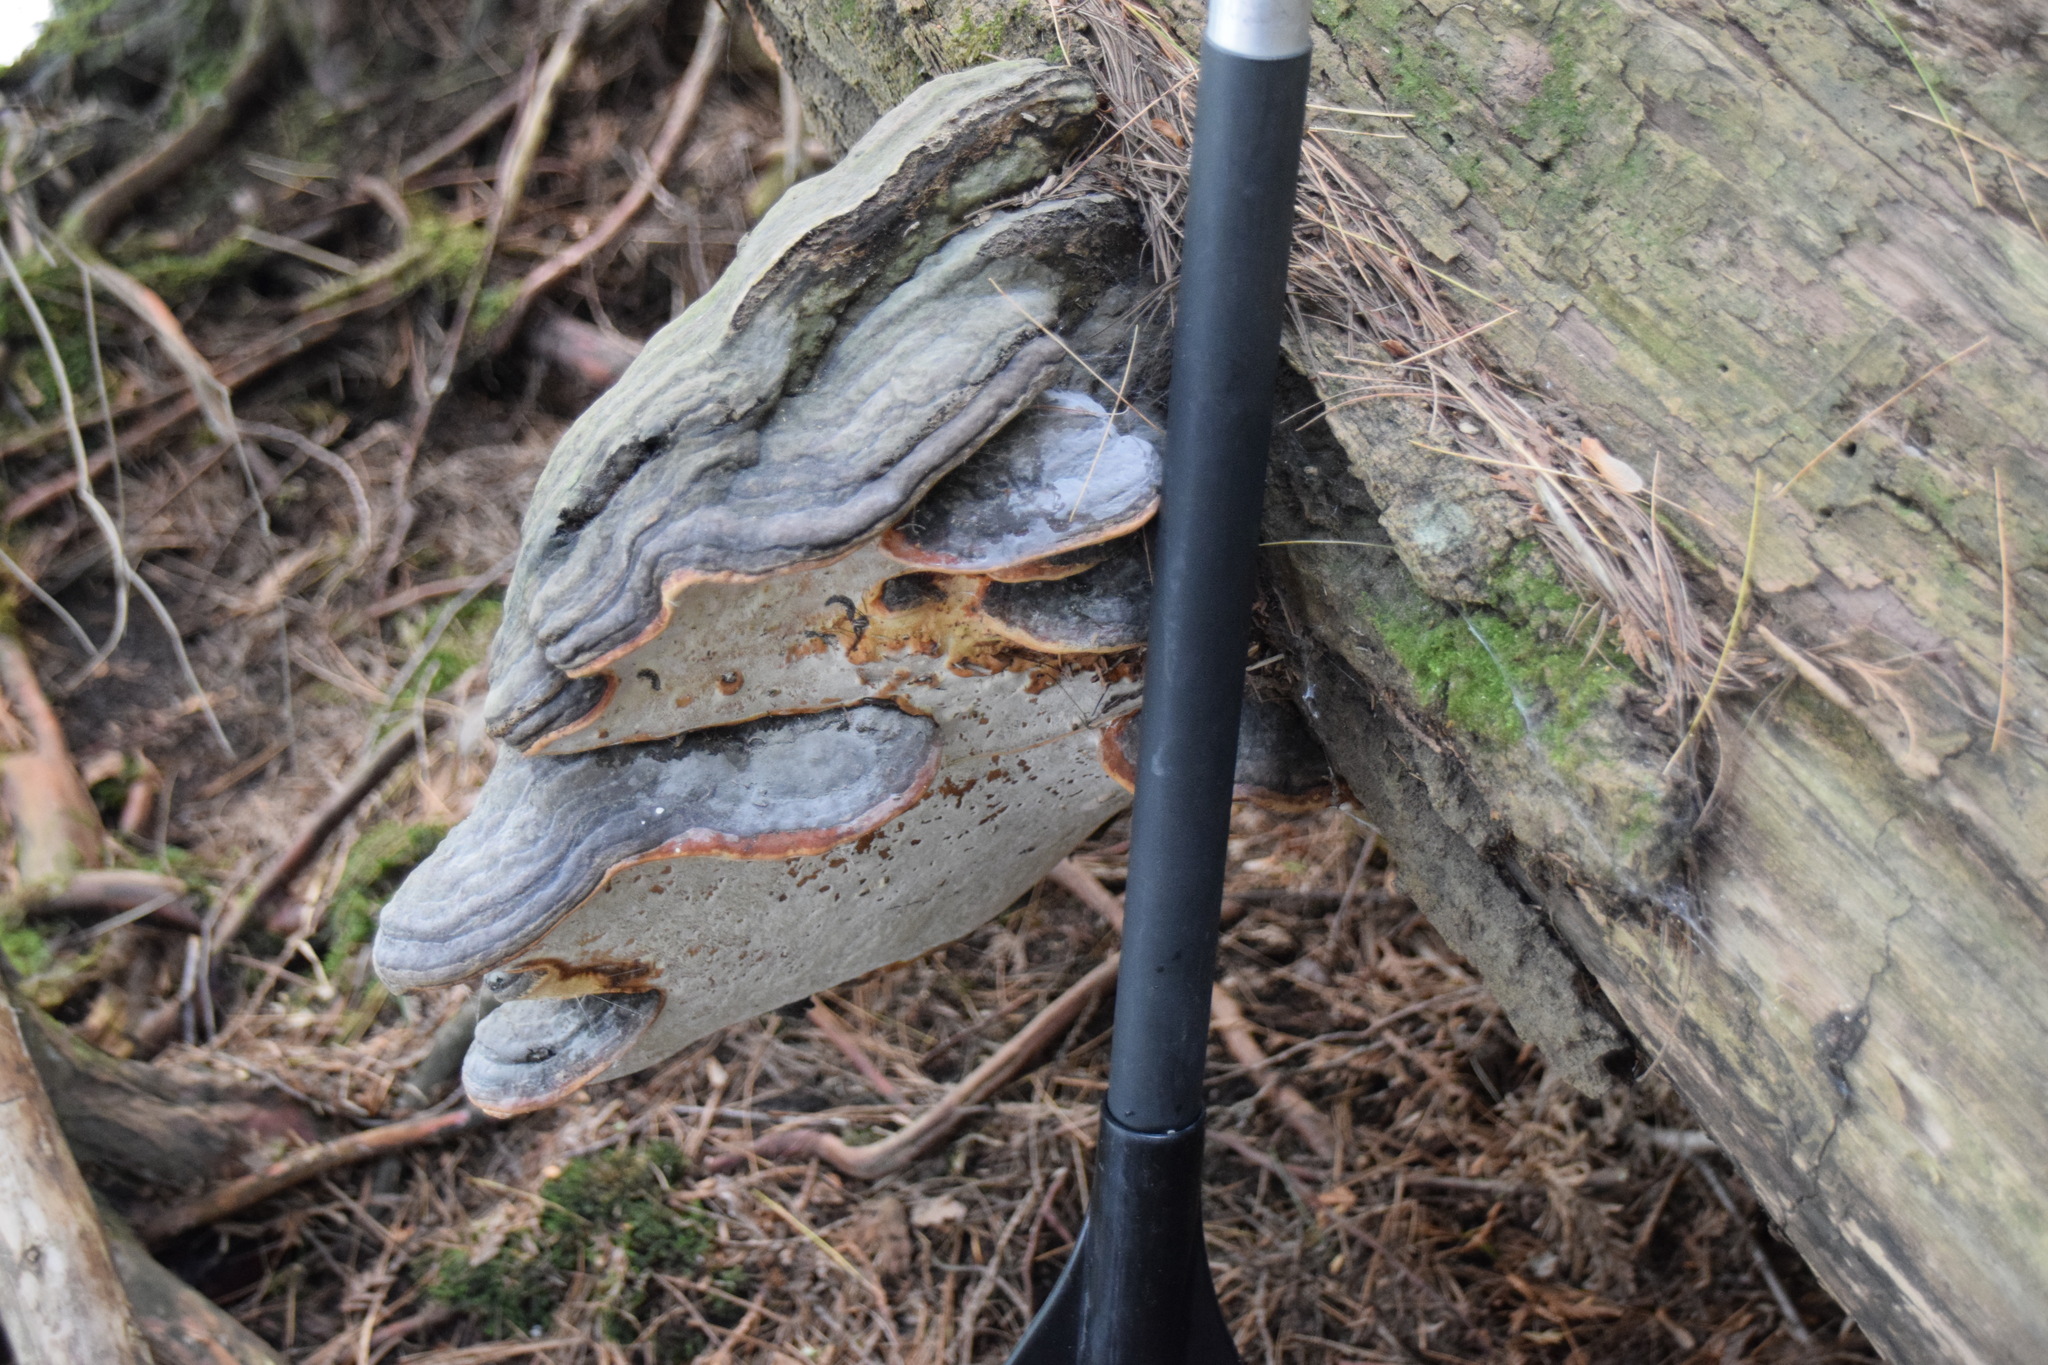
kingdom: Fungi
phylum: Basidiomycota
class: Agaricomycetes
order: Polyporales
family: Fomitopsidaceae
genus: Fomitopsis
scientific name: Fomitopsis mounceae
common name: Northern red belt
